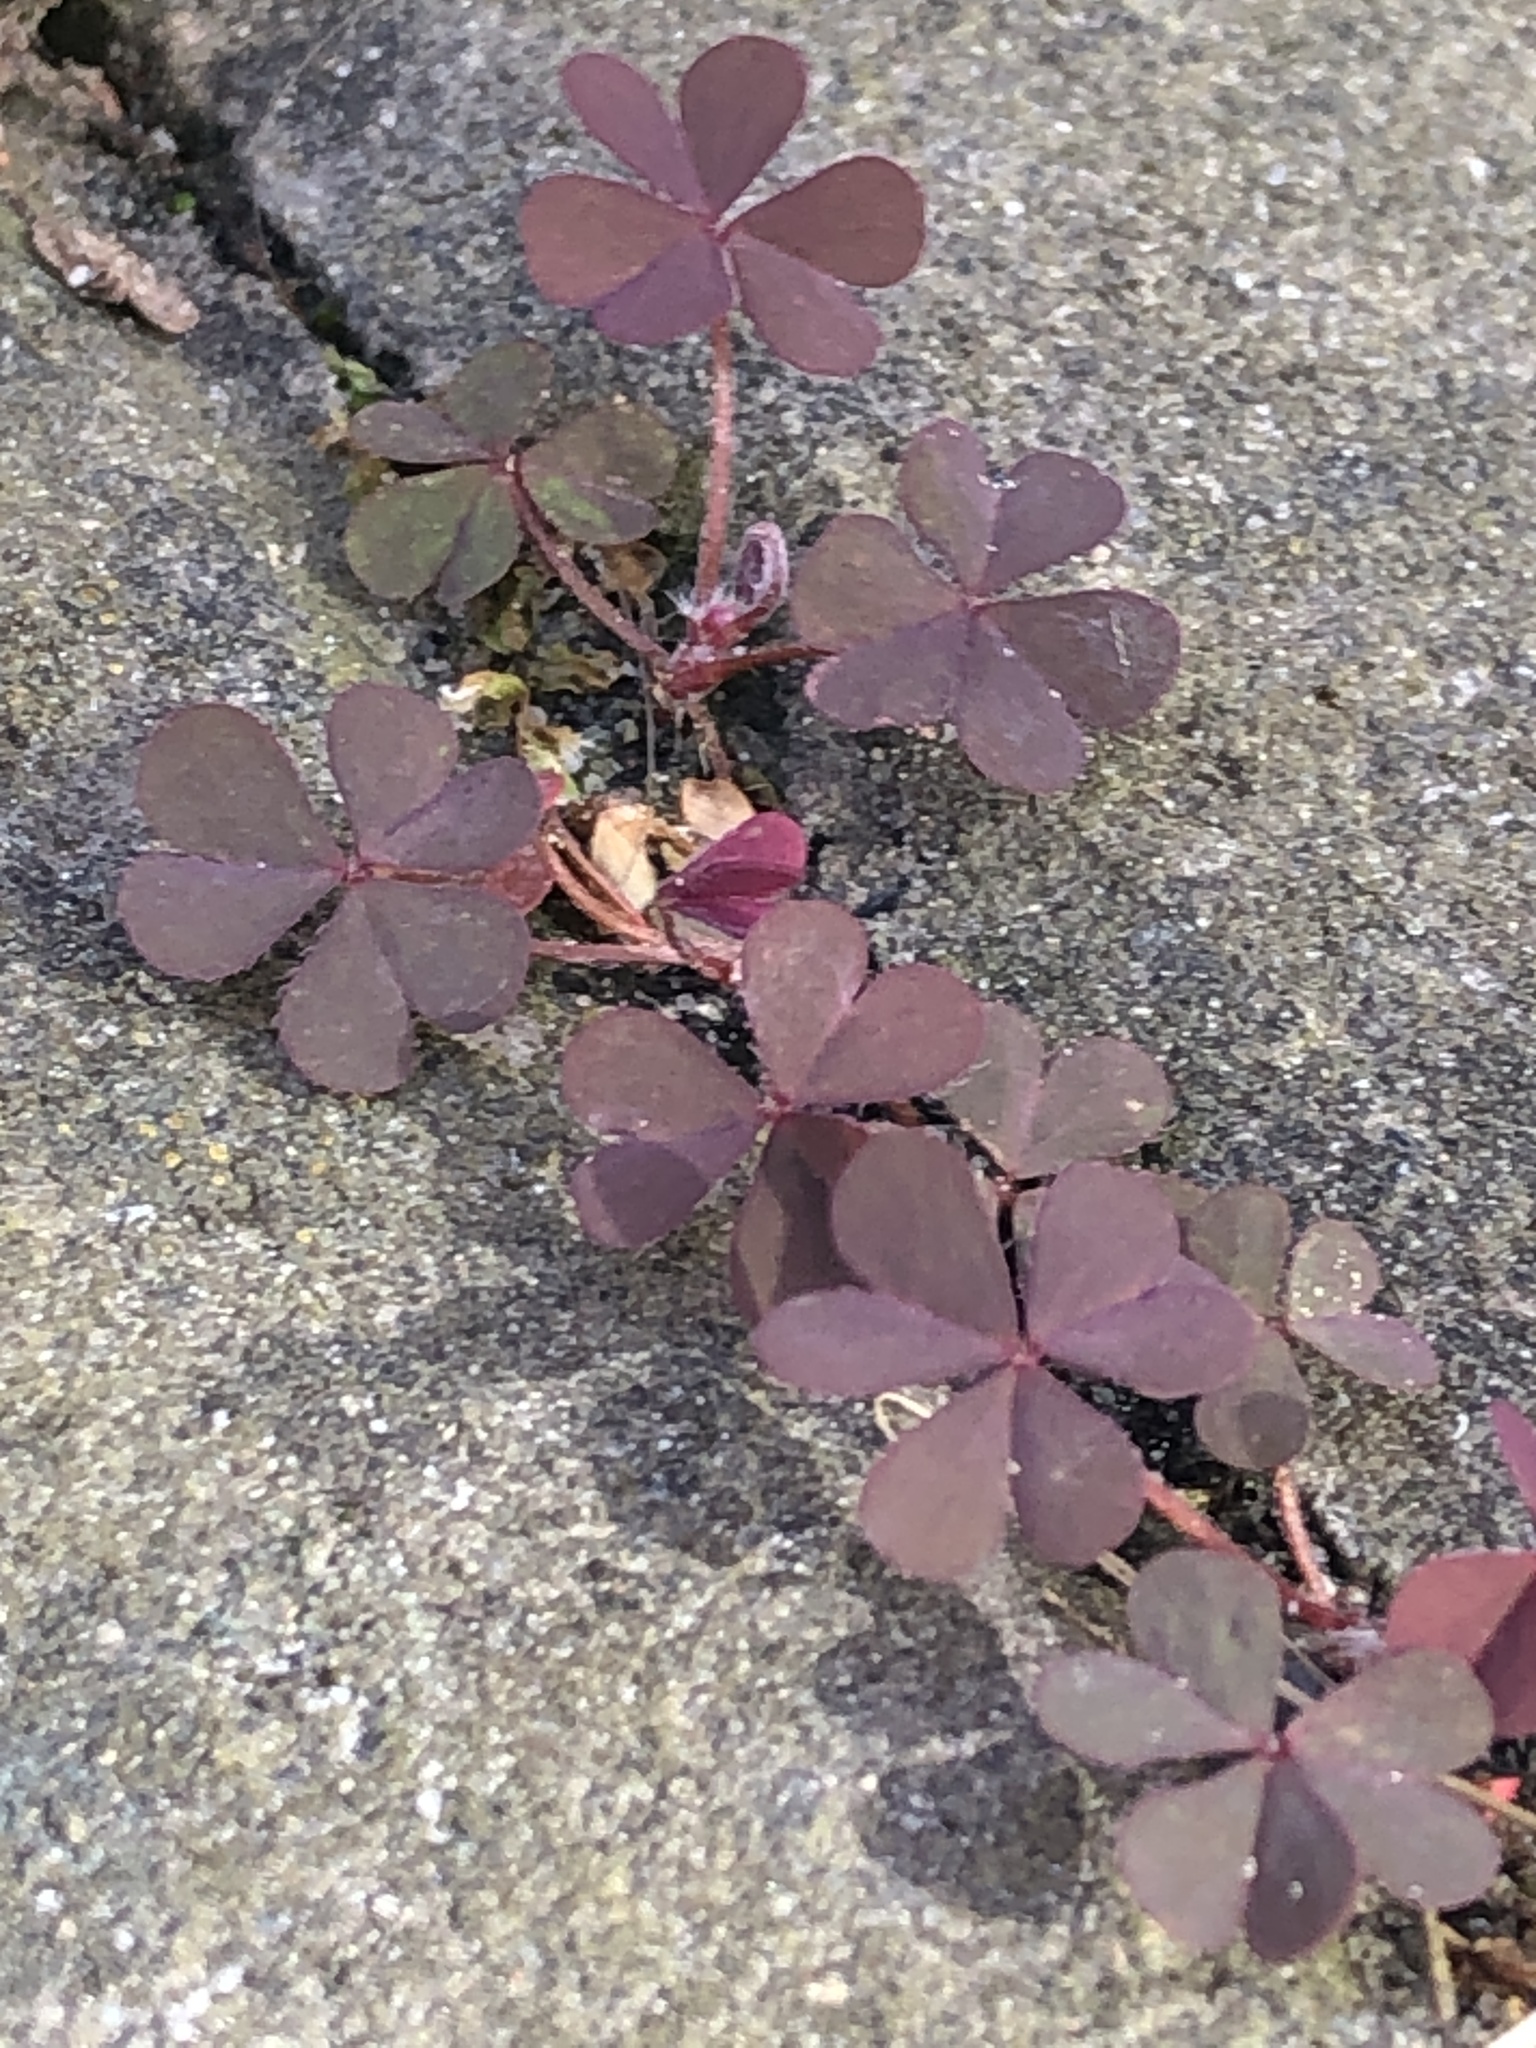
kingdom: Plantae
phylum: Tracheophyta
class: Magnoliopsida
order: Oxalidales
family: Oxalidaceae
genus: Oxalis
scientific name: Oxalis corniculata
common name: Procumbent yellow-sorrel
